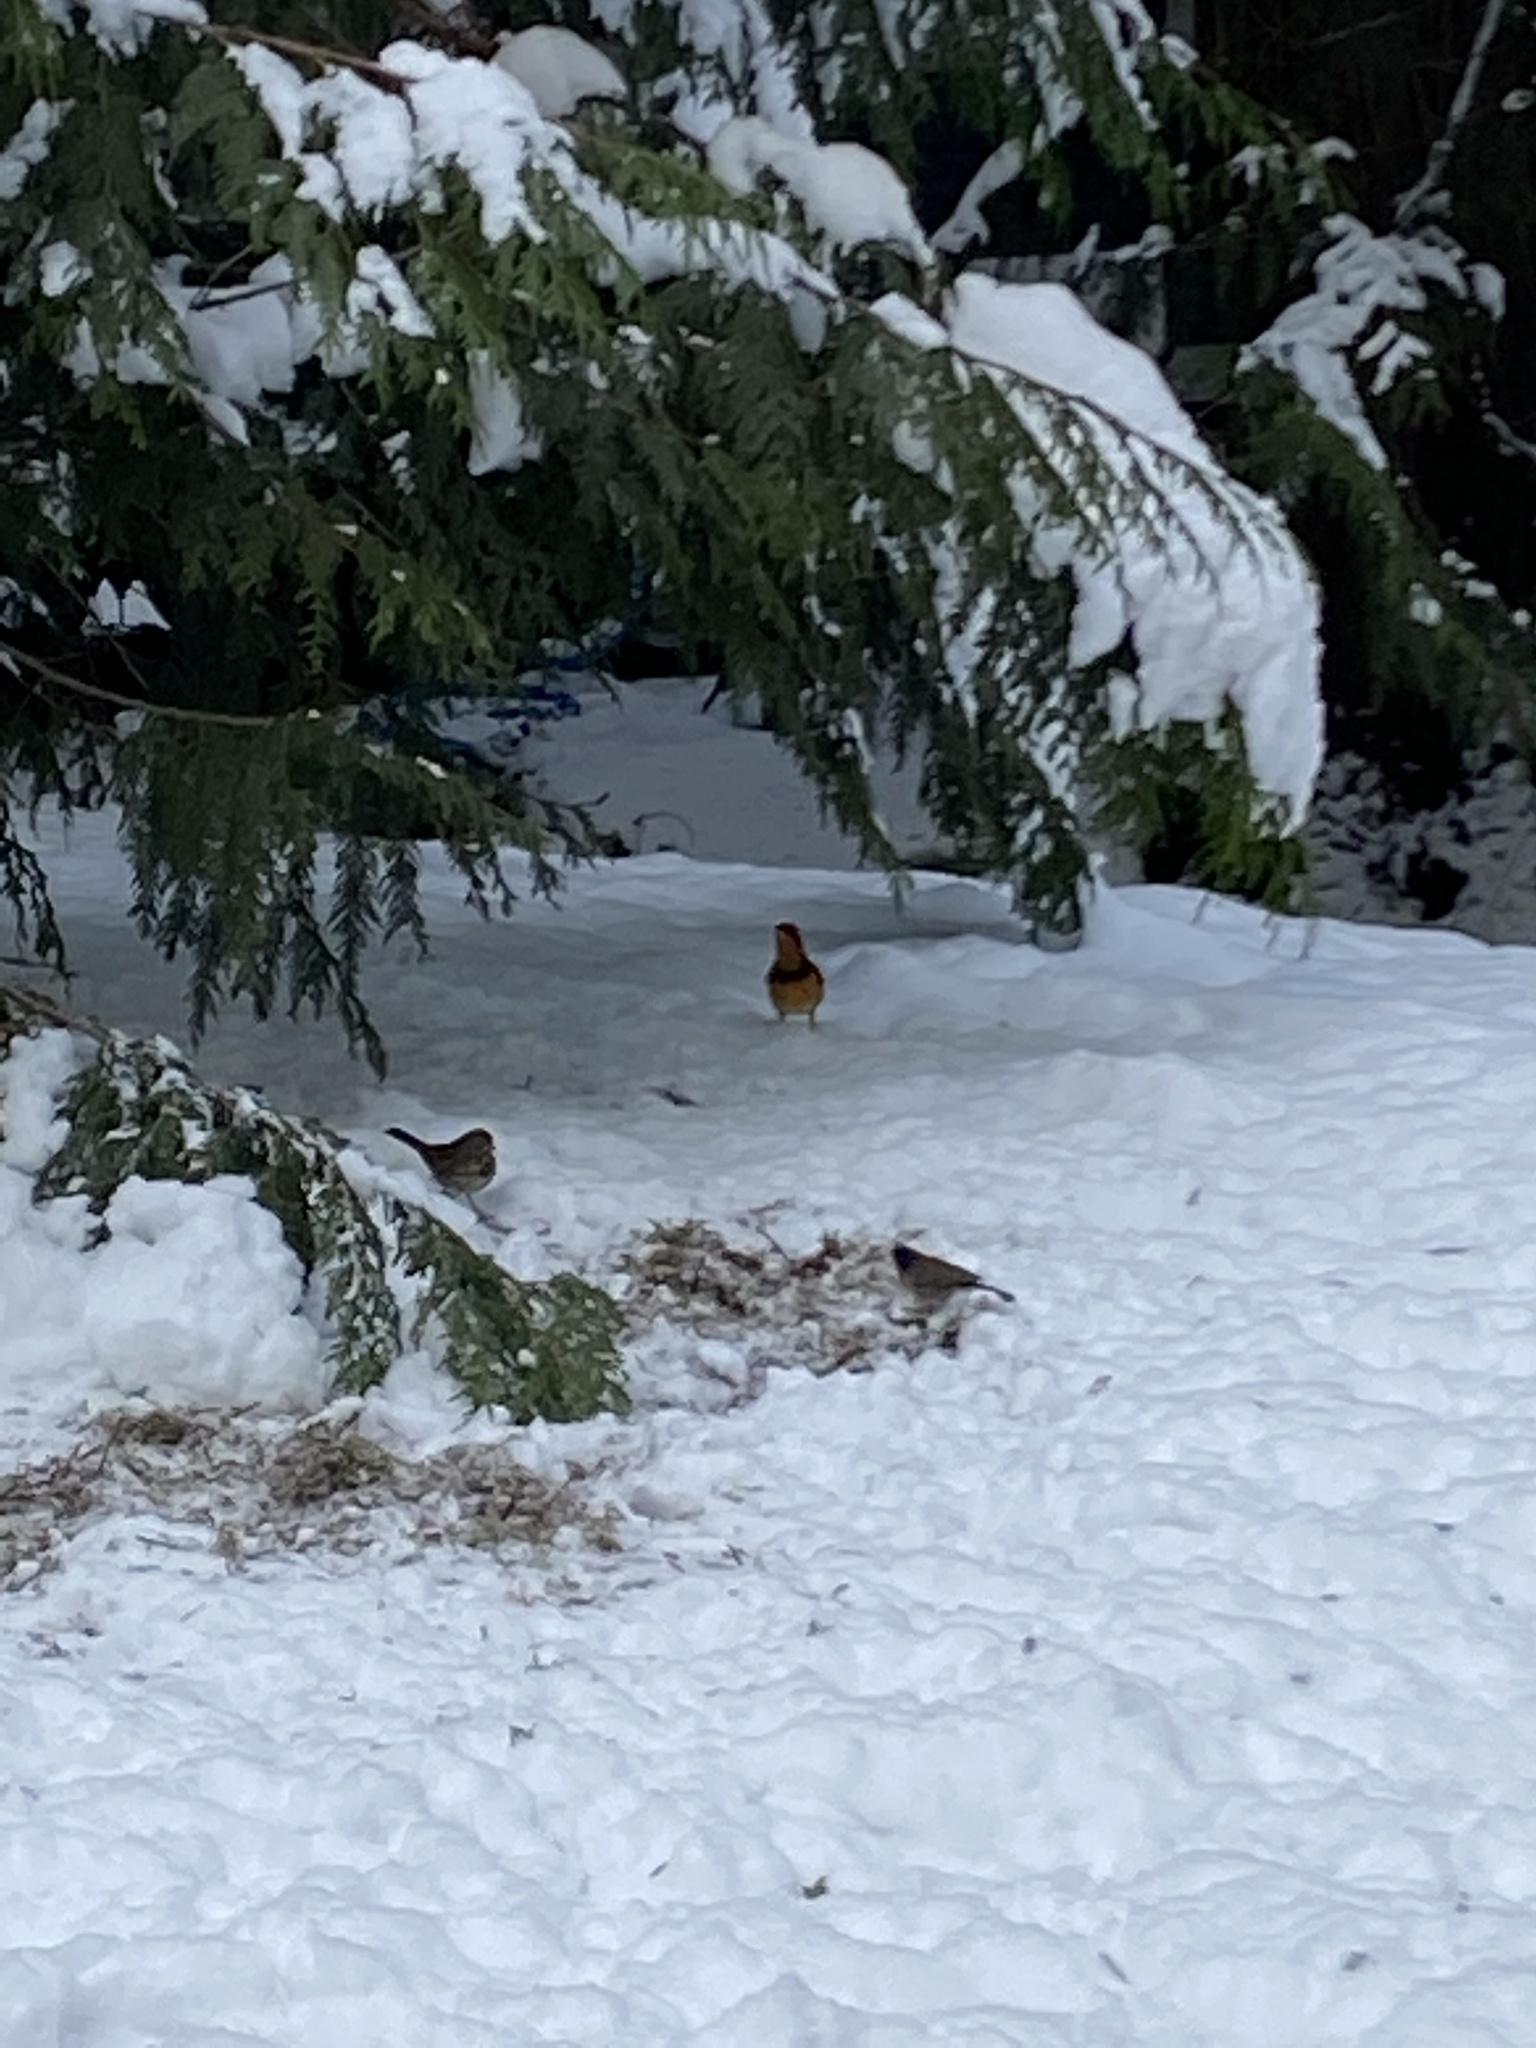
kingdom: Animalia
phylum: Chordata
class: Aves
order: Passeriformes
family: Turdidae
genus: Ixoreus
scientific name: Ixoreus naevius
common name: Varied thrush
